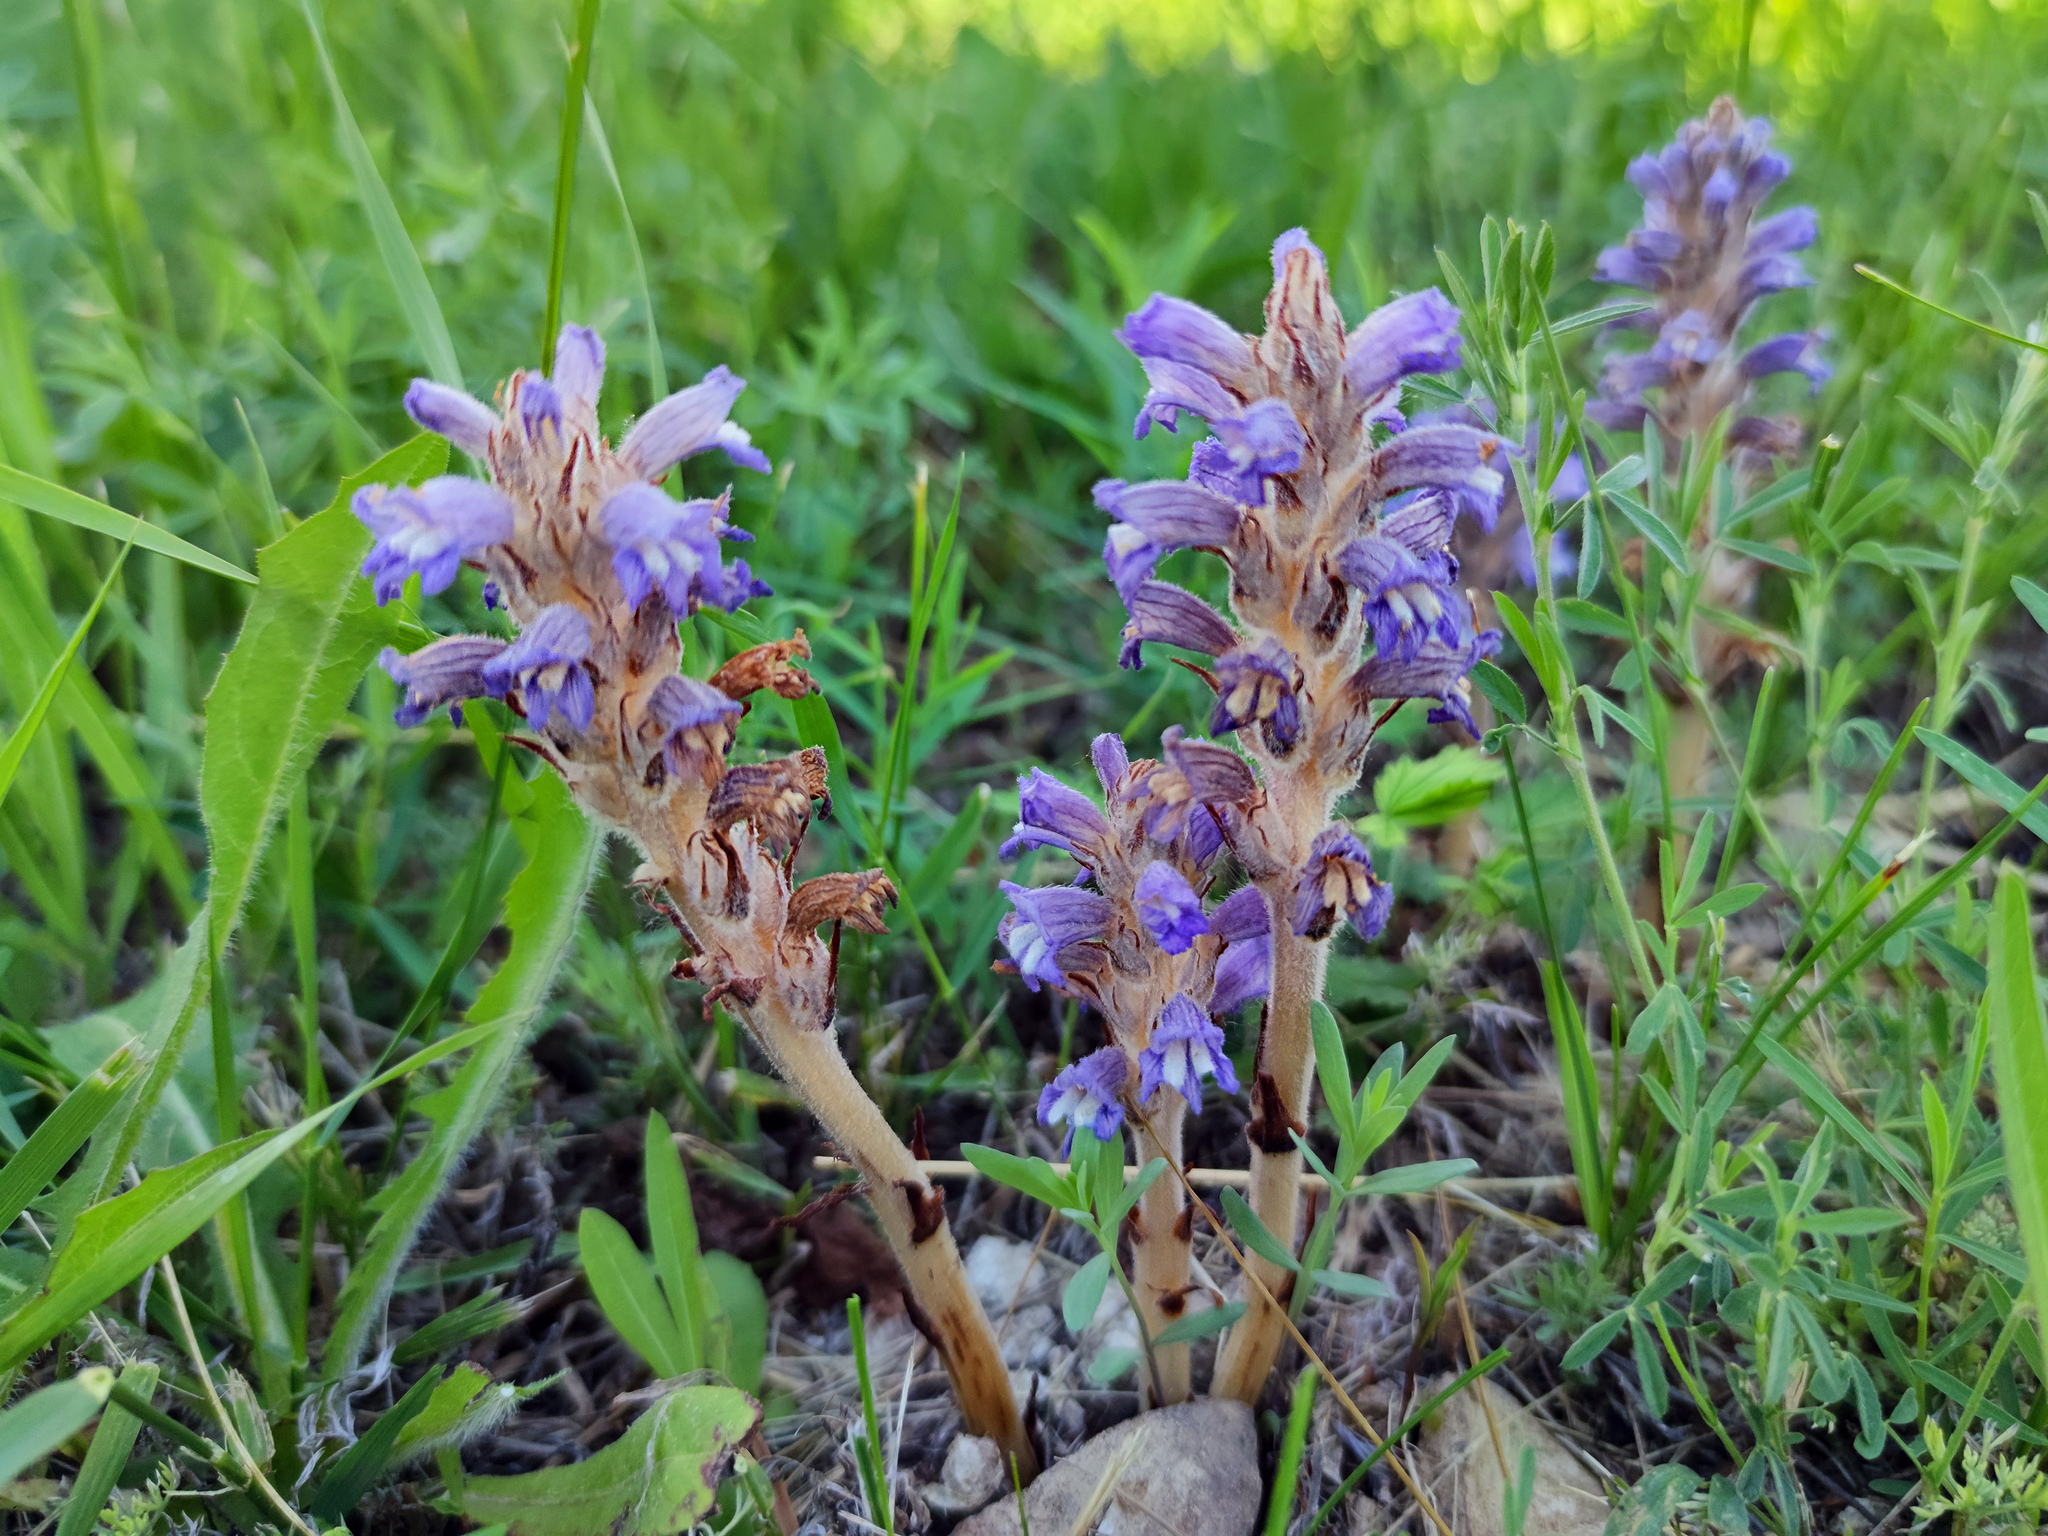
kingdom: Plantae
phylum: Tracheophyta
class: Magnoliopsida
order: Lamiales
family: Orobanchaceae
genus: Phelipanche
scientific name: Phelipanche caesia
